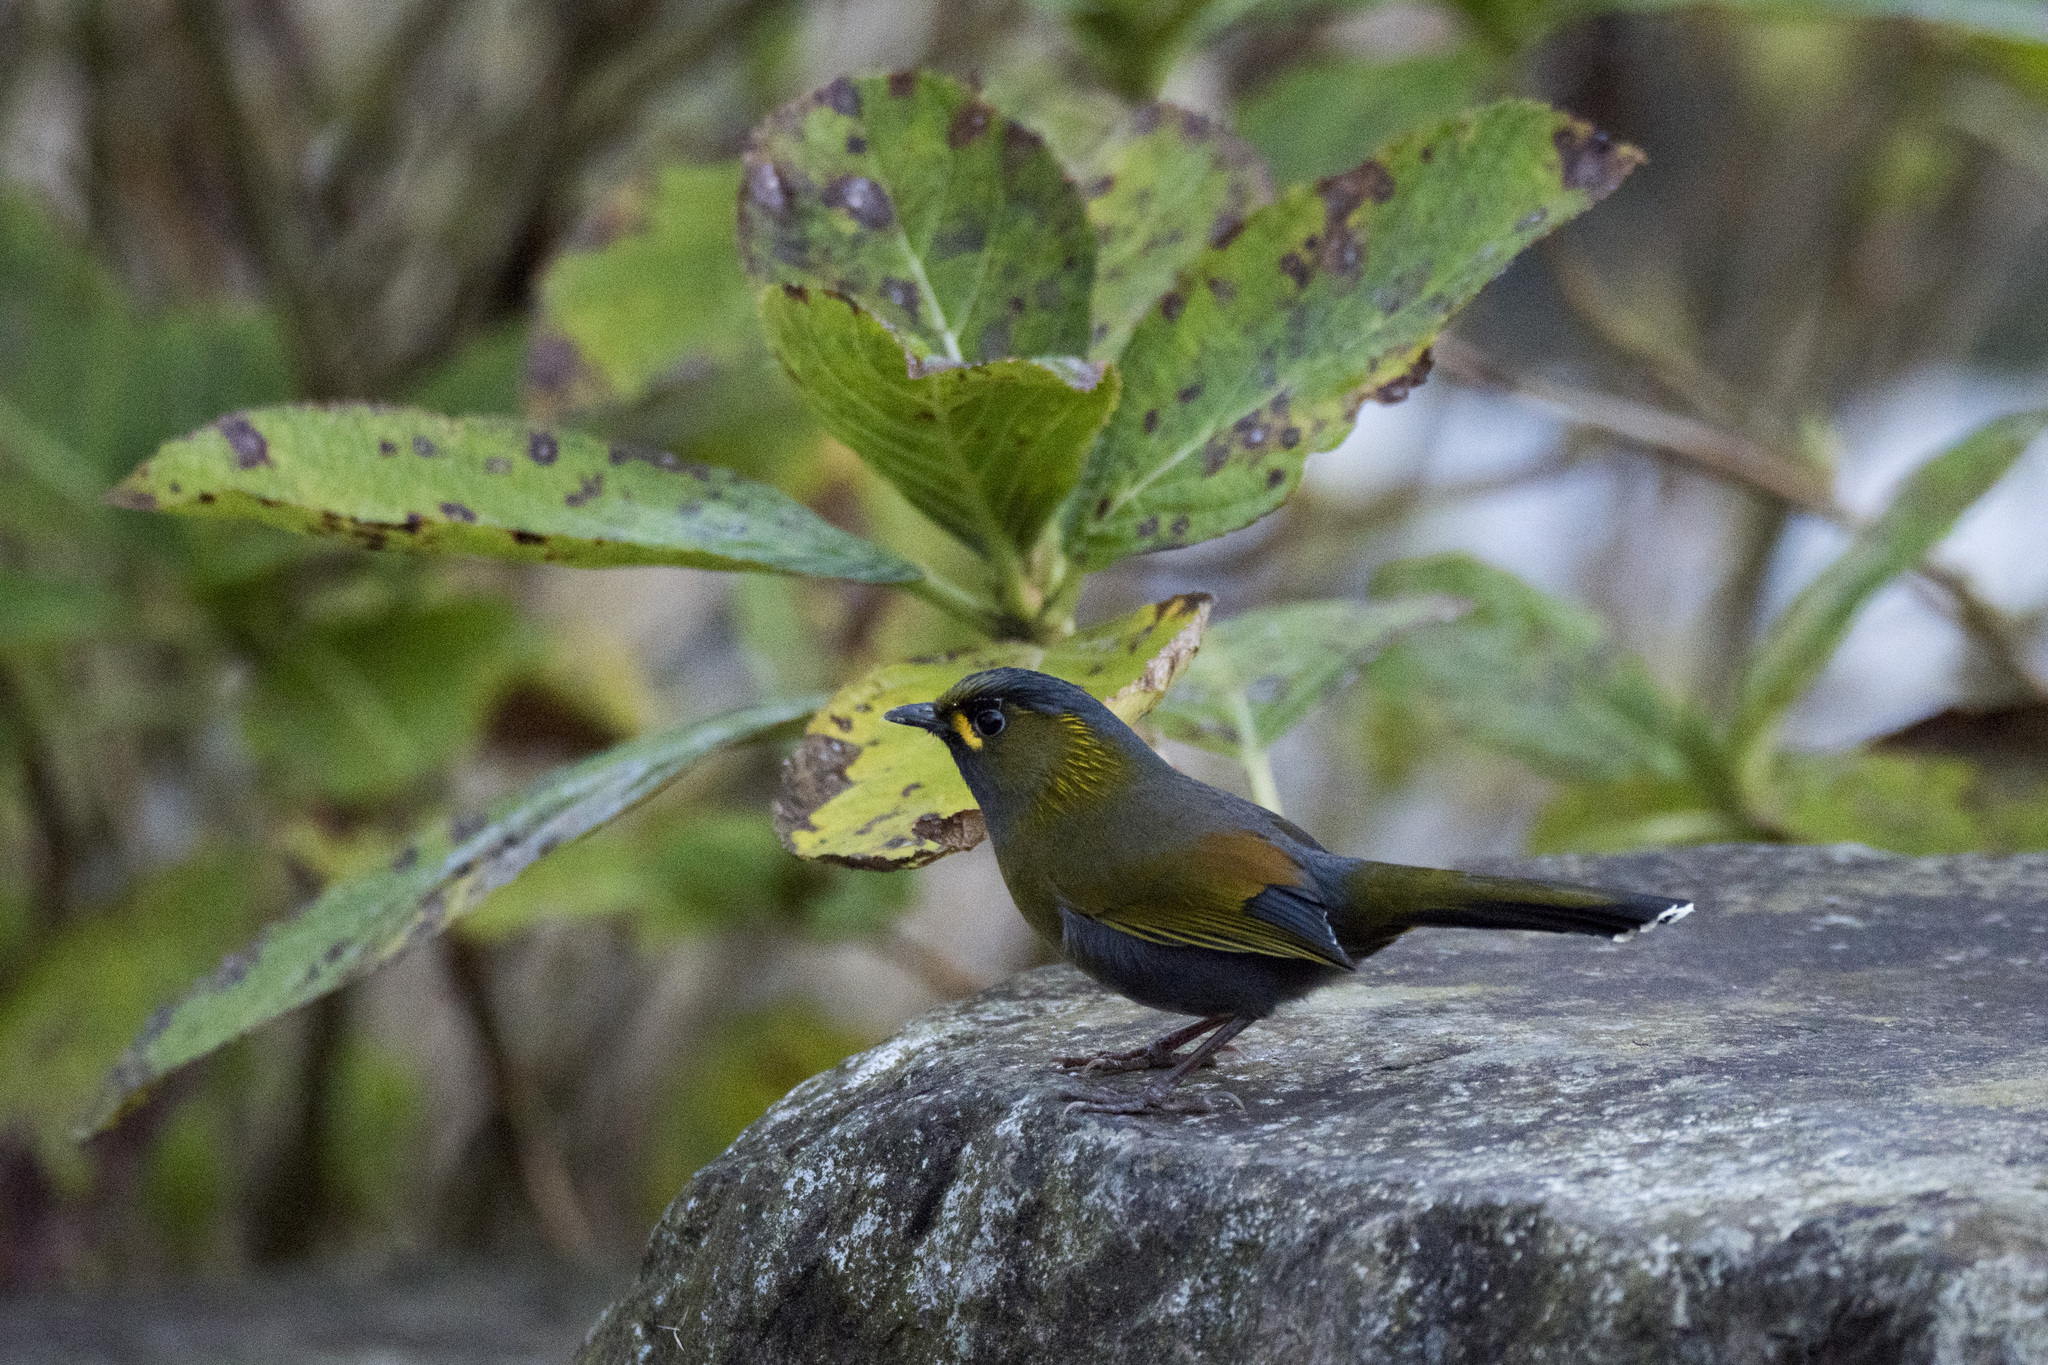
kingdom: Animalia
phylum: Chordata
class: Aves
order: Passeriformes
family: Leiothrichidae
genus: Liocichla
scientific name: Liocichla steerii
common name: Steere's liocichla
